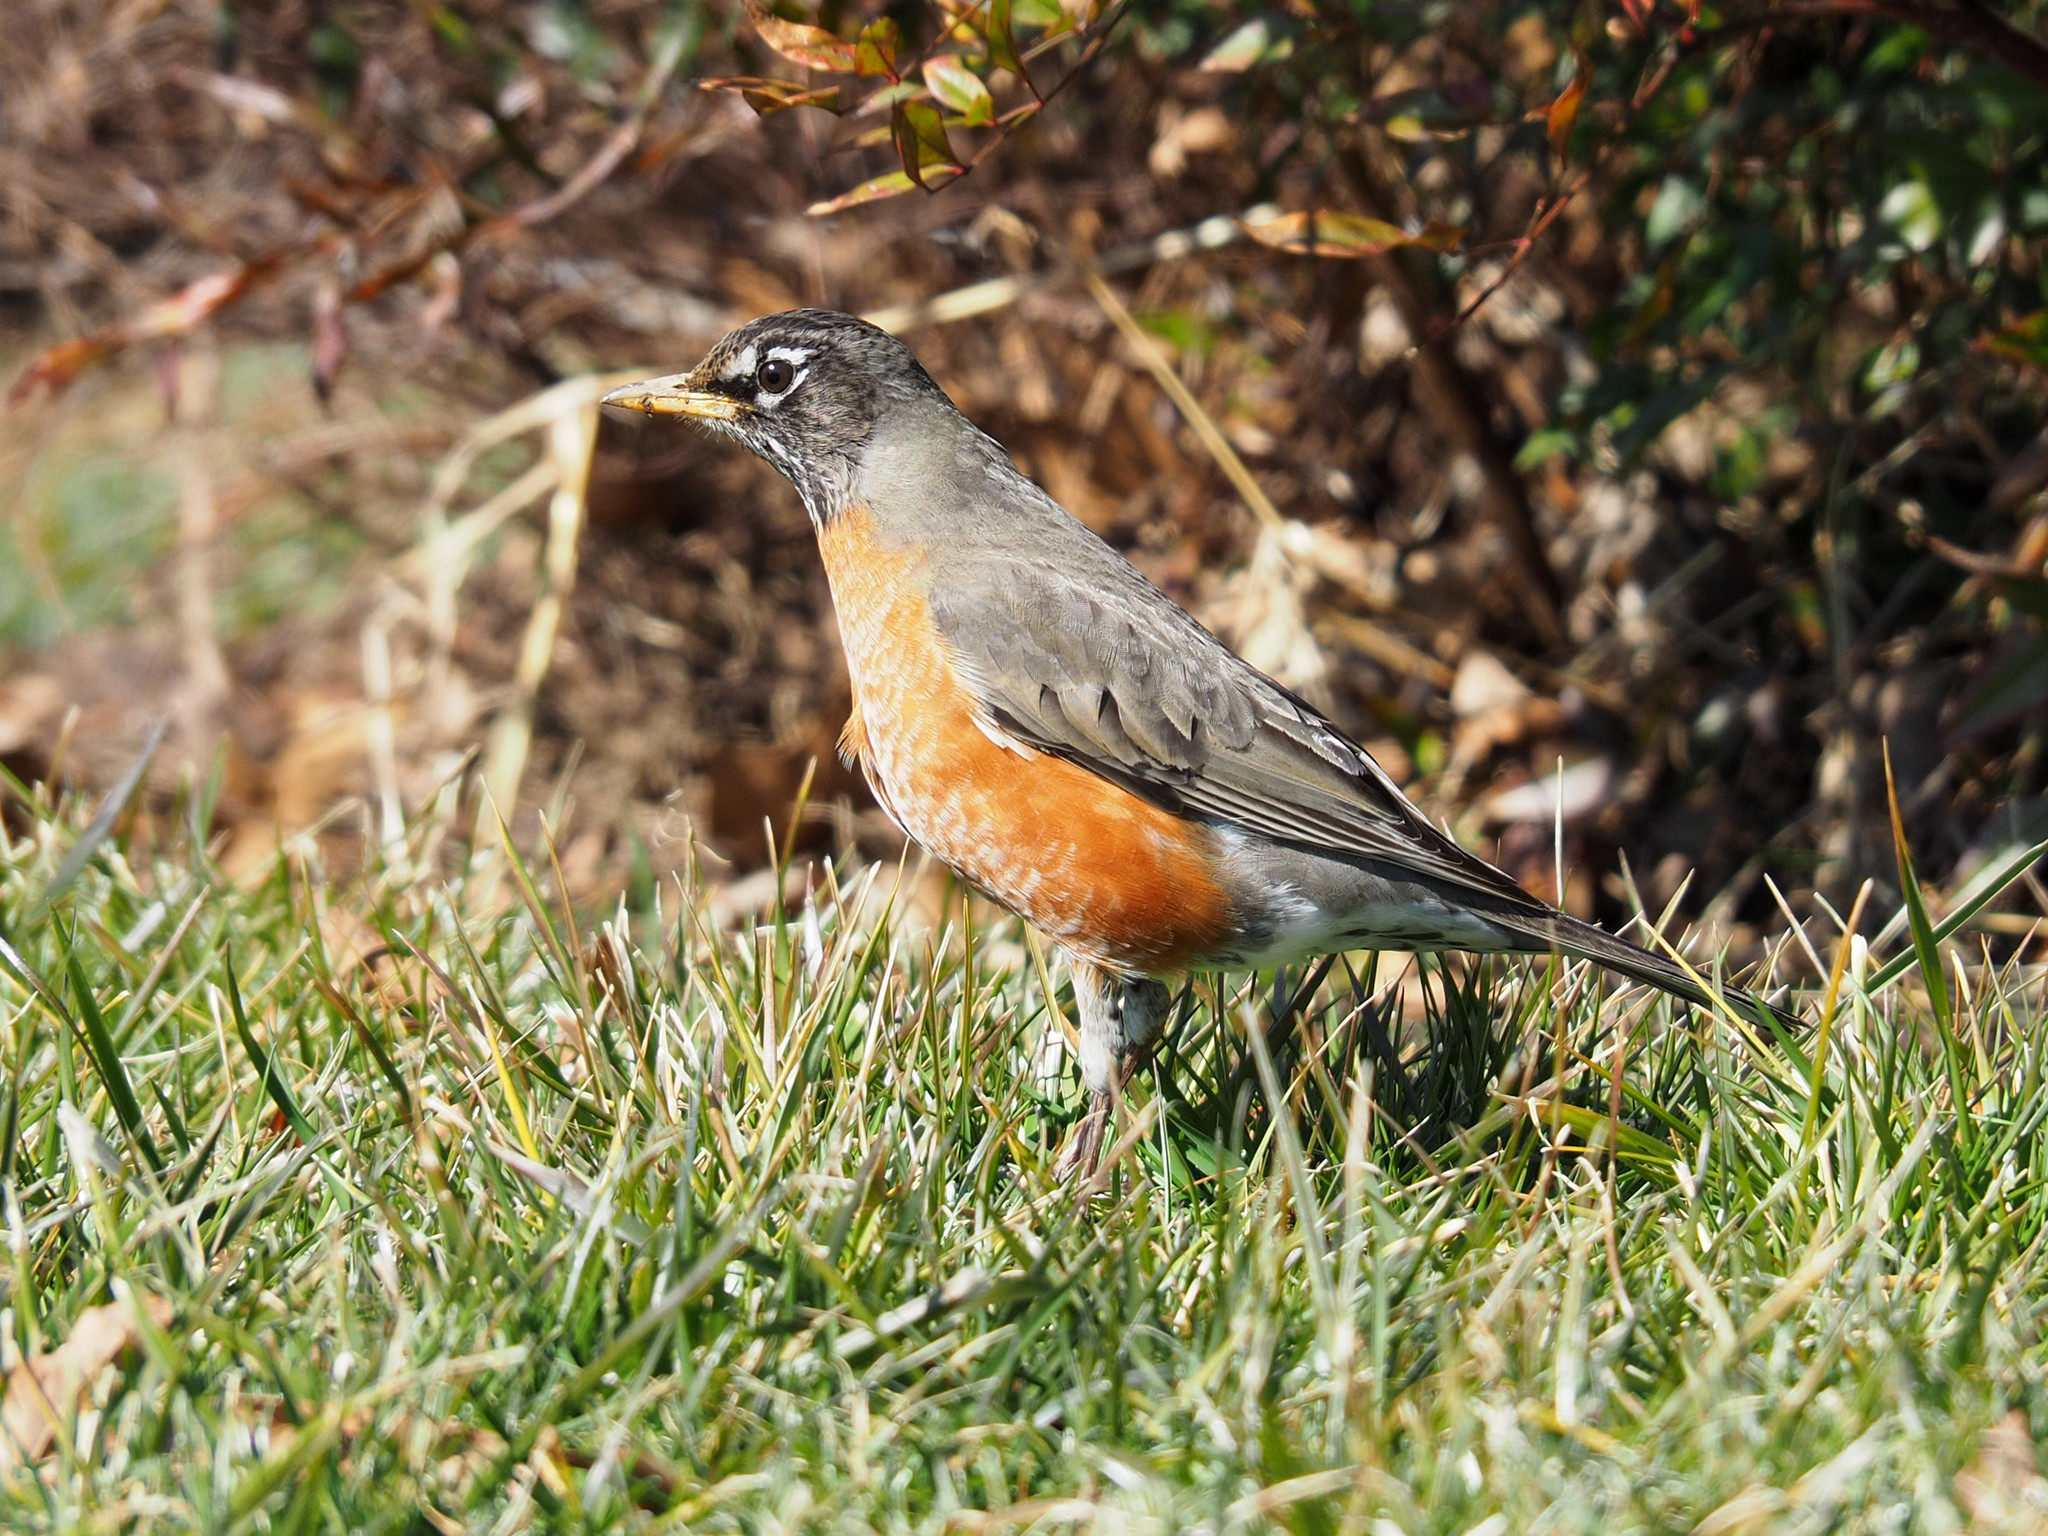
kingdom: Animalia
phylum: Chordata
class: Aves
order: Passeriformes
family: Turdidae
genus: Turdus
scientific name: Turdus migratorius
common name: American robin
